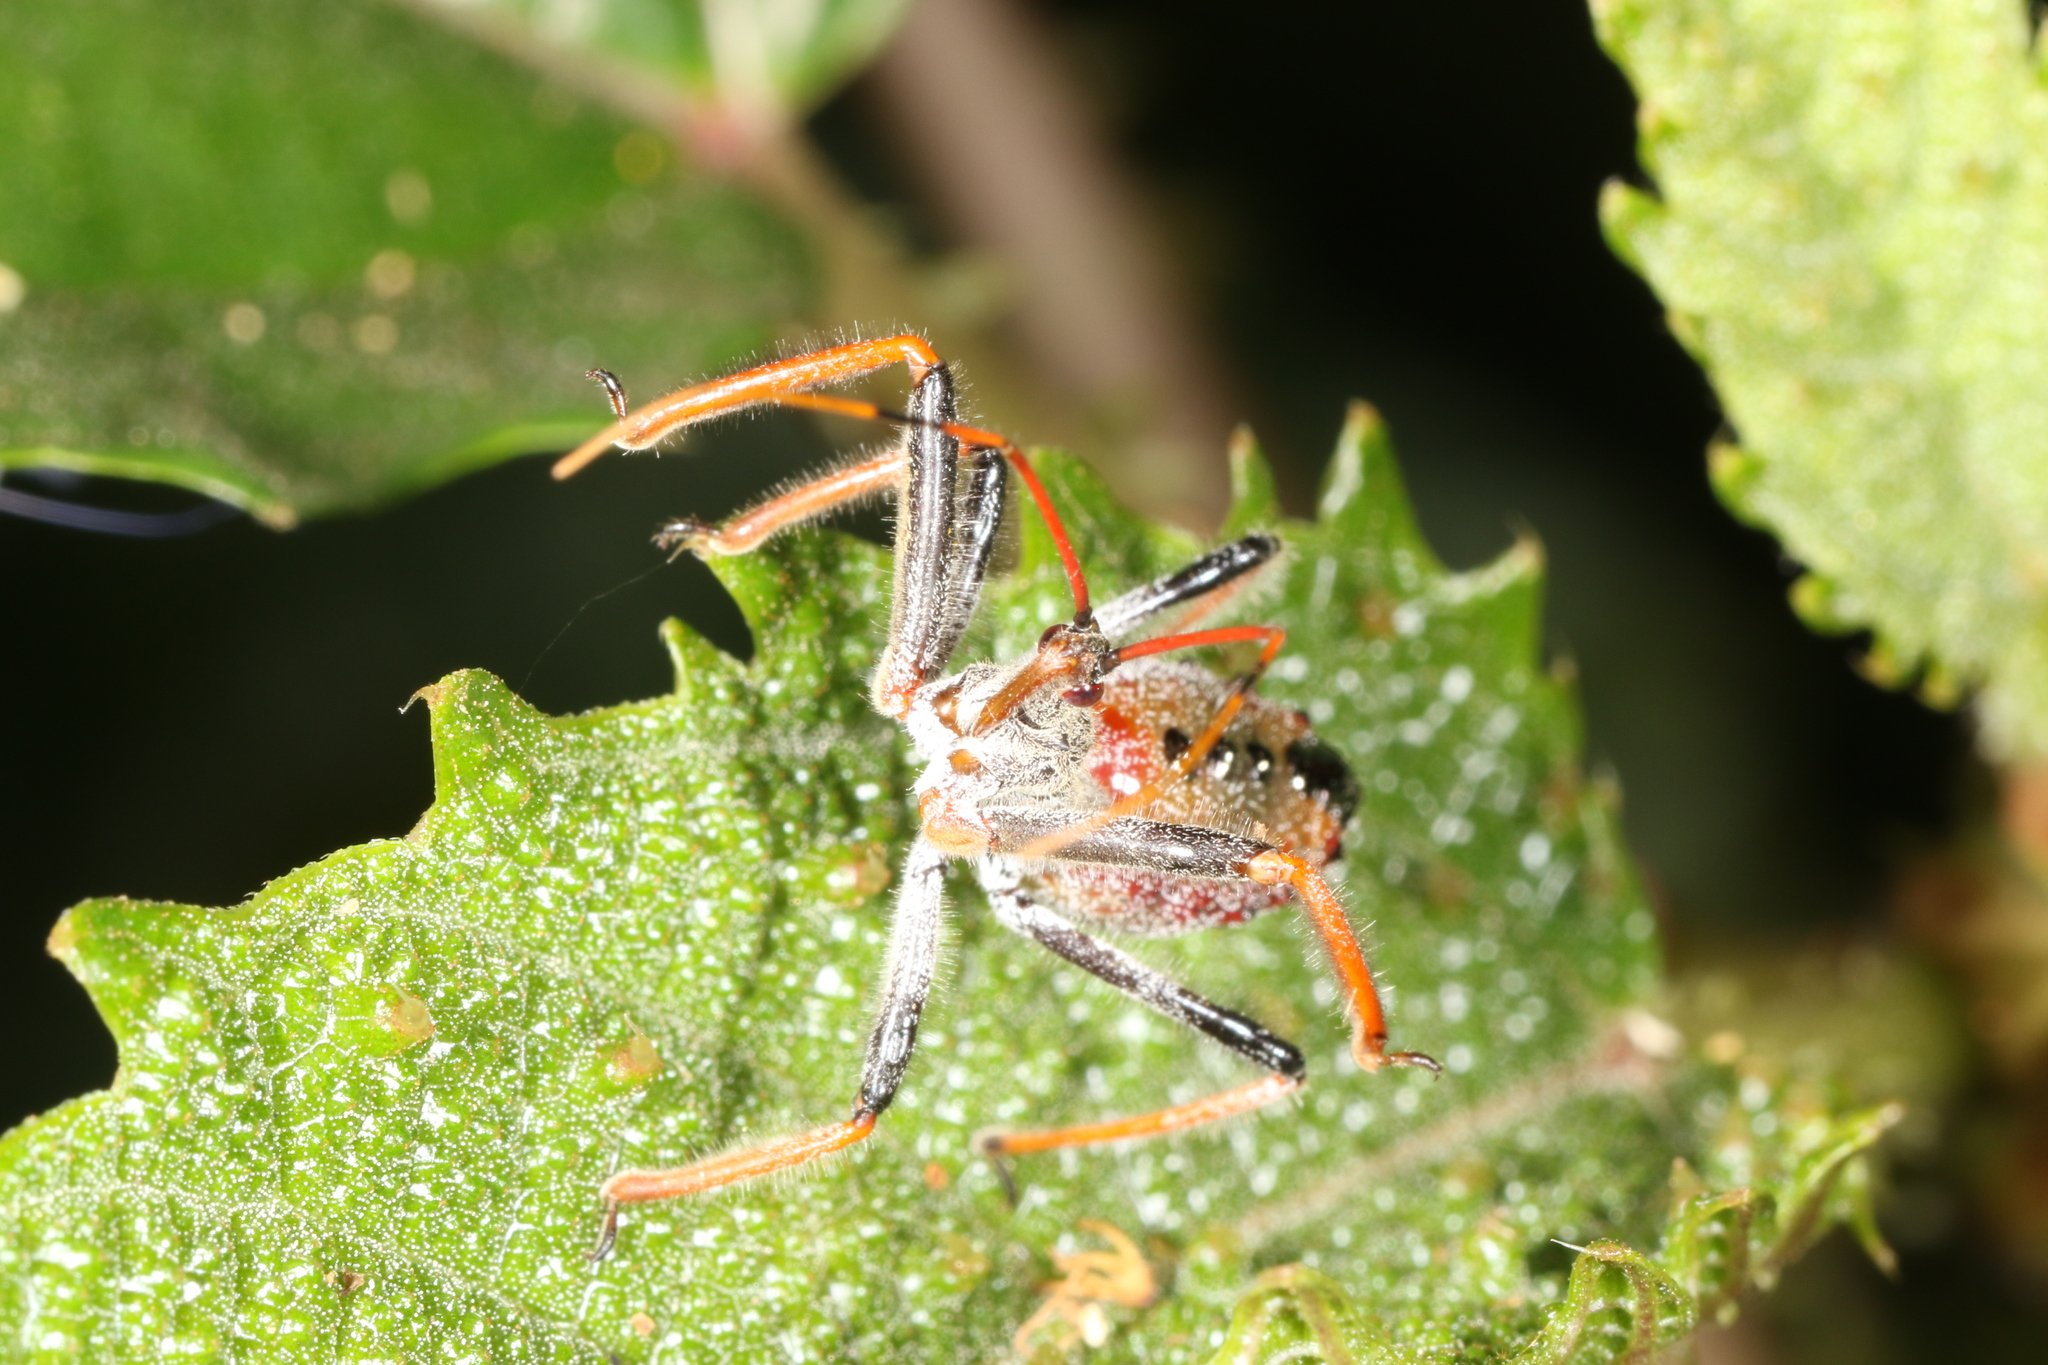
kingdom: Animalia
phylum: Arthropoda
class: Insecta
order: Hemiptera
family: Reduviidae
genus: Arilus
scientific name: Arilus carinatus
